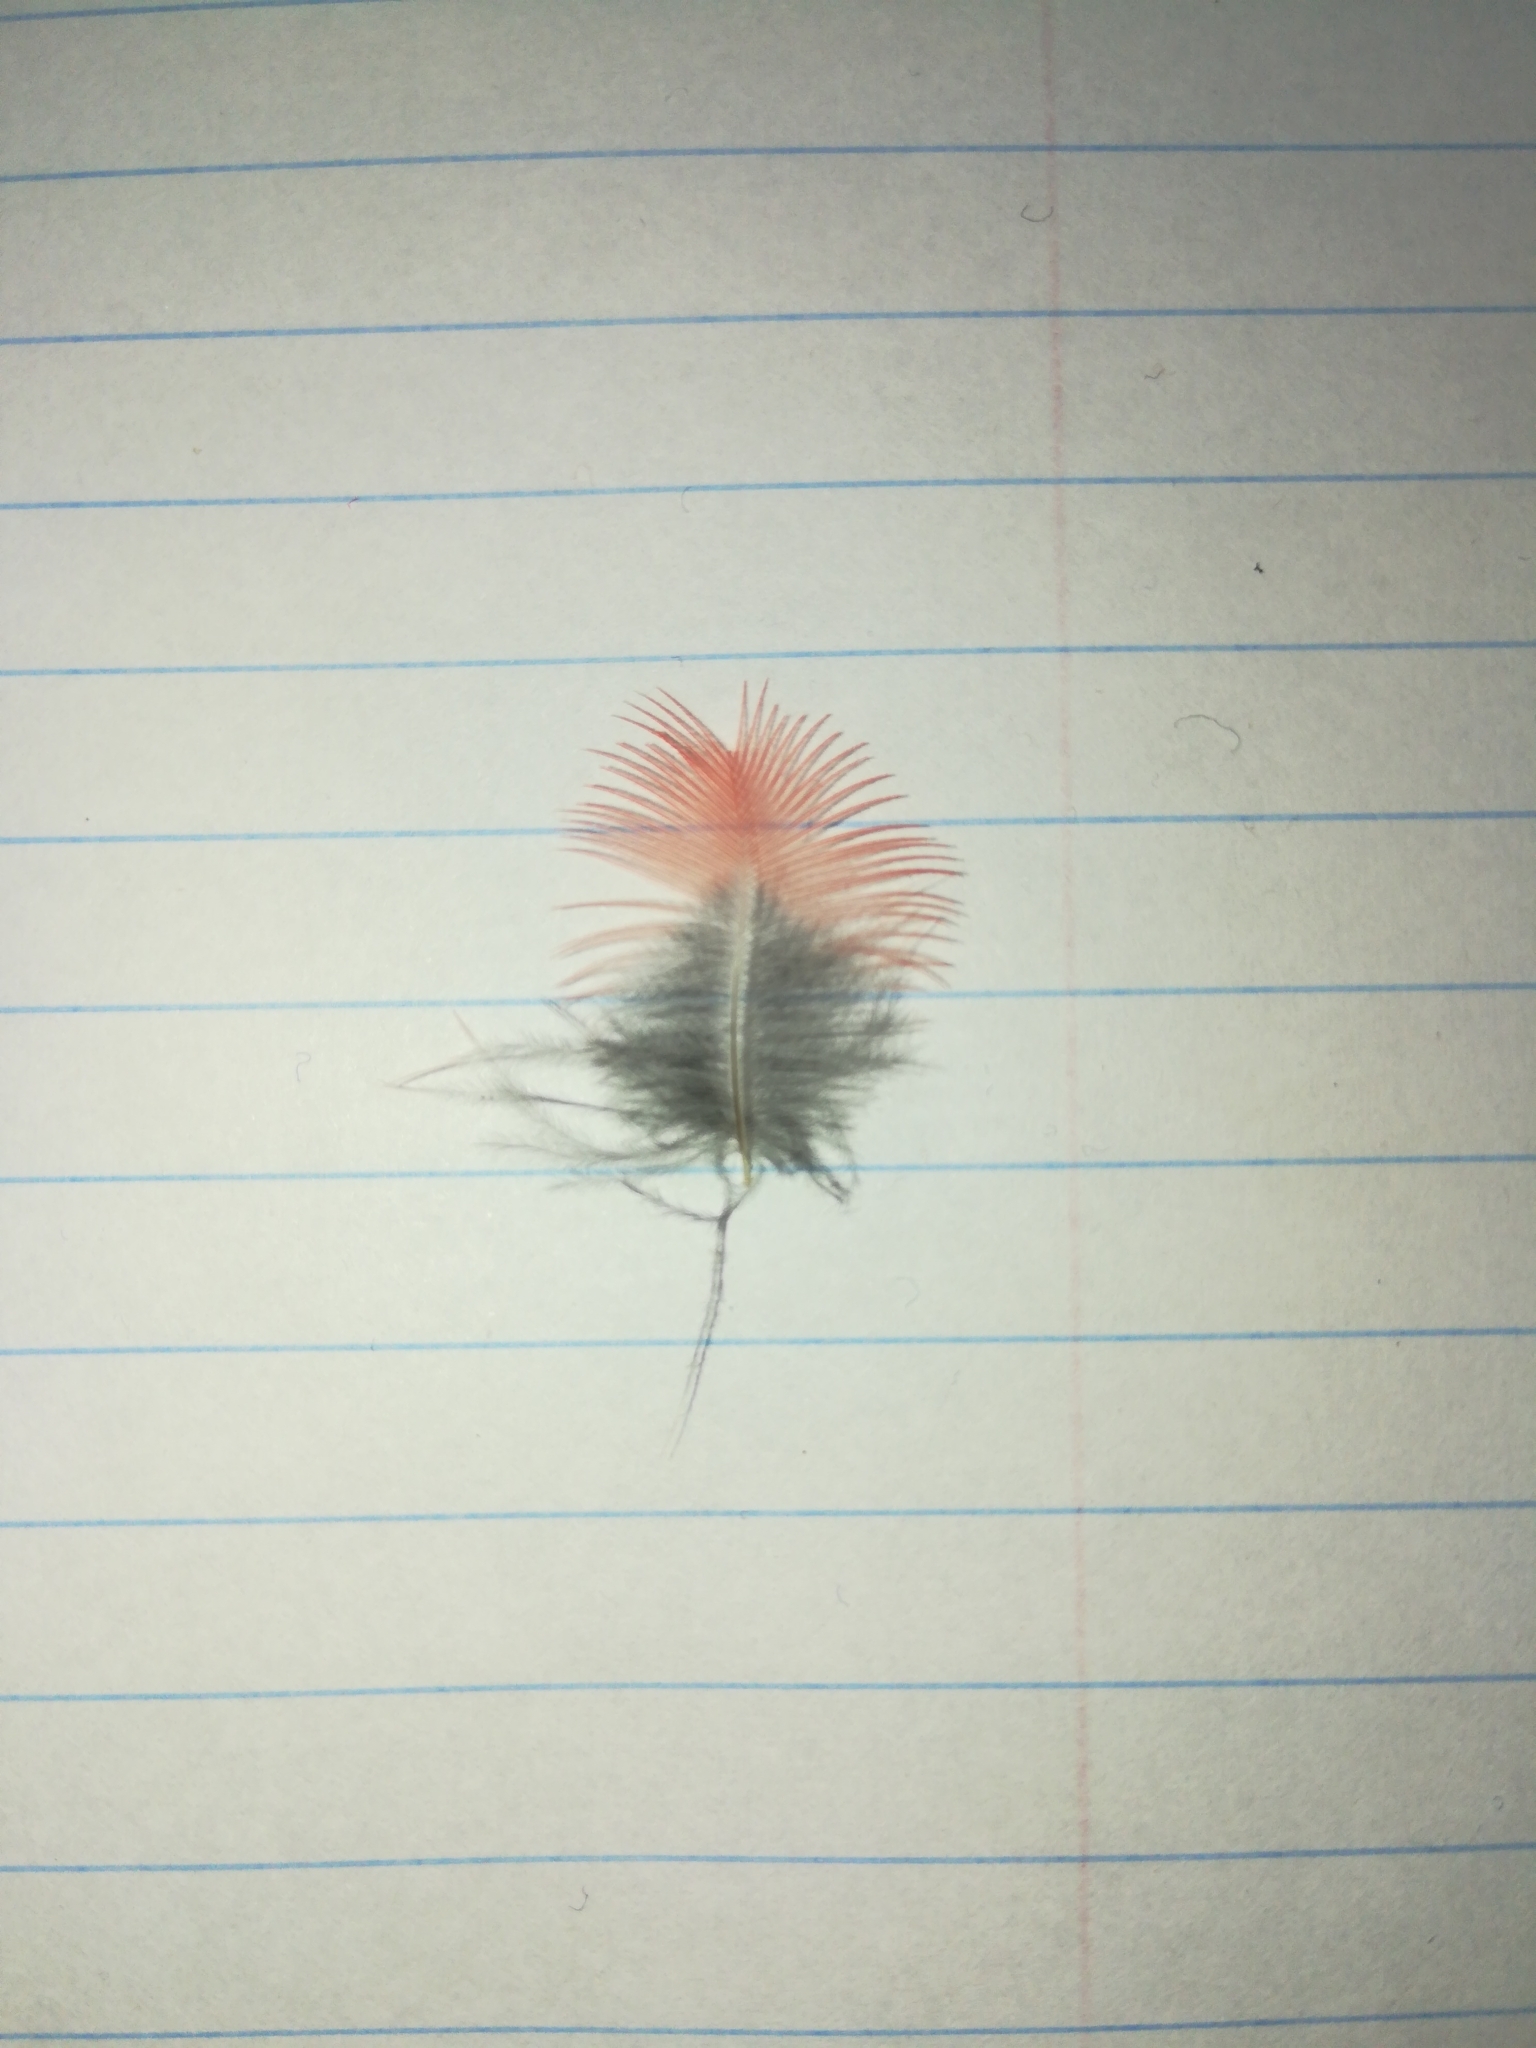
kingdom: Animalia
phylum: Chordata
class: Aves
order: Passeriformes
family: Cardinalidae
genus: Cardinalis
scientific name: Cardinalis cardinalis
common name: Northern cardinal
